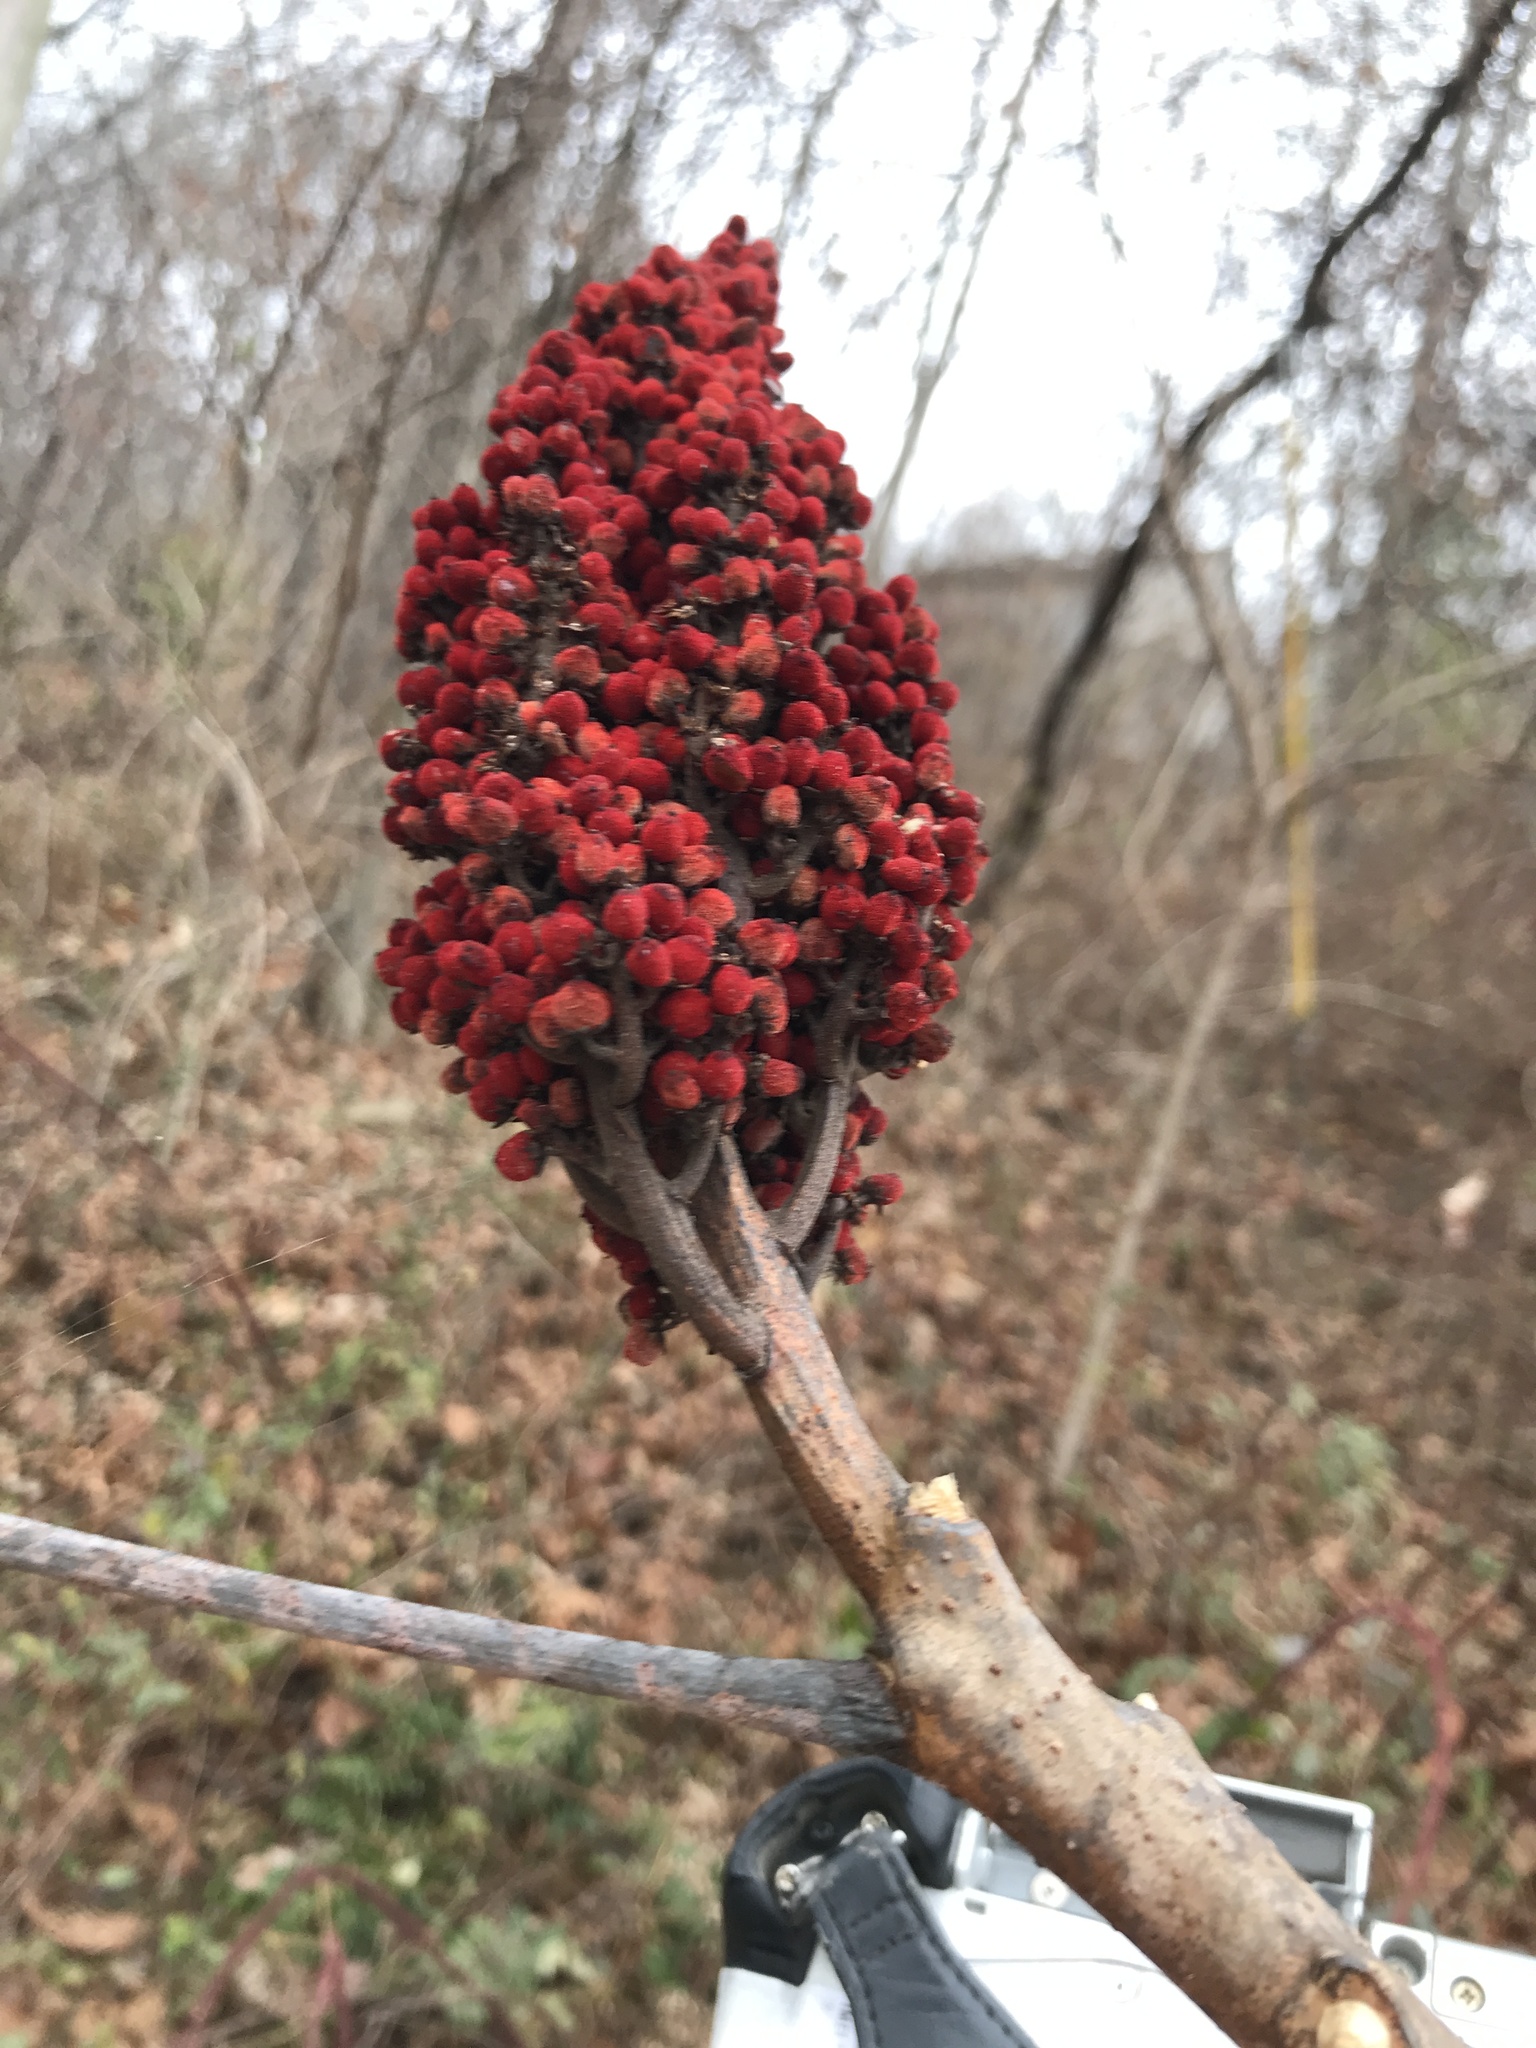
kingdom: Plantae
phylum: Tracheophyta
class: Magnoliopsida
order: Sapindales
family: Anacardiaceae
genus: Rhus
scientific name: Rhus glabra
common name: Scarlet sumac
